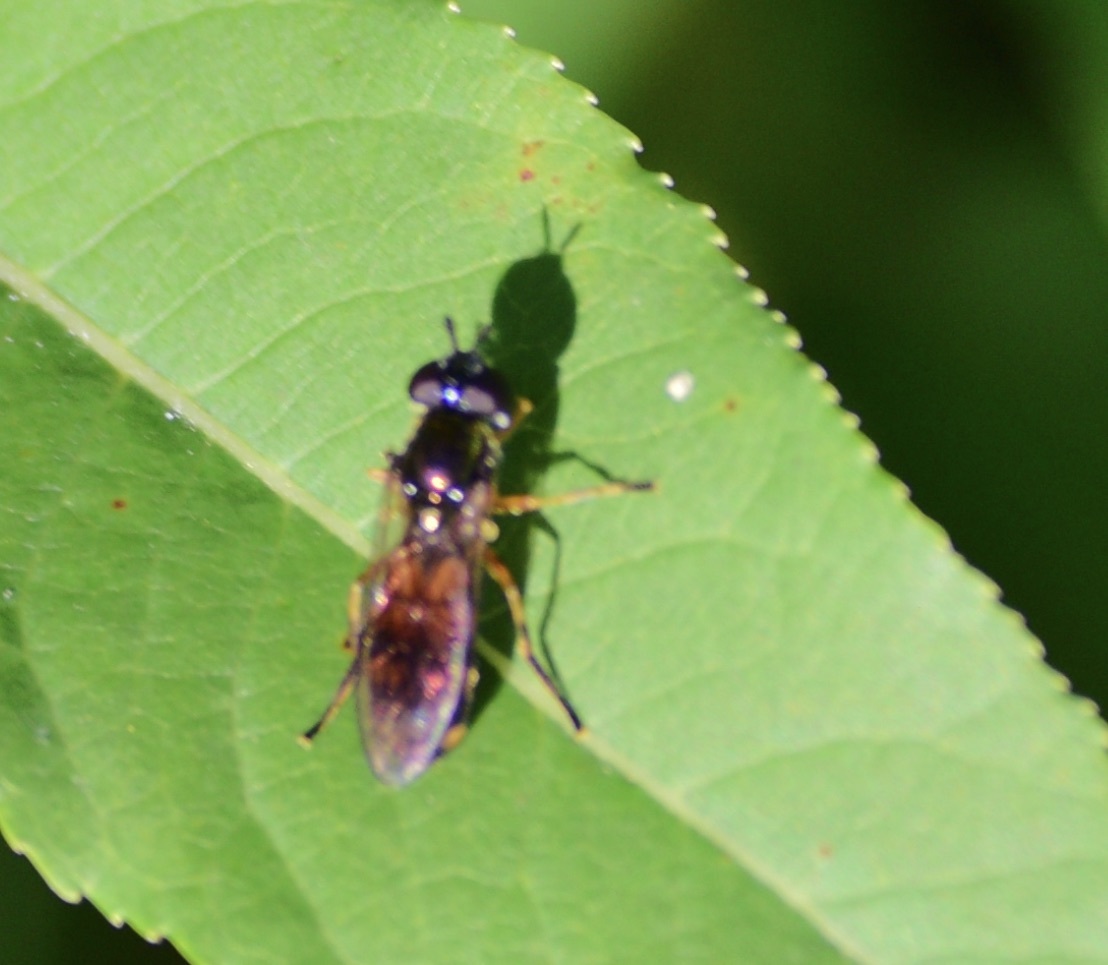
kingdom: Animalia
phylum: Arthropoda
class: Insecta
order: Diptera
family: Syrphidae
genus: Pyrophaena
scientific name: Pyrophaena granditarsa
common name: Hornhand sedgesitter
